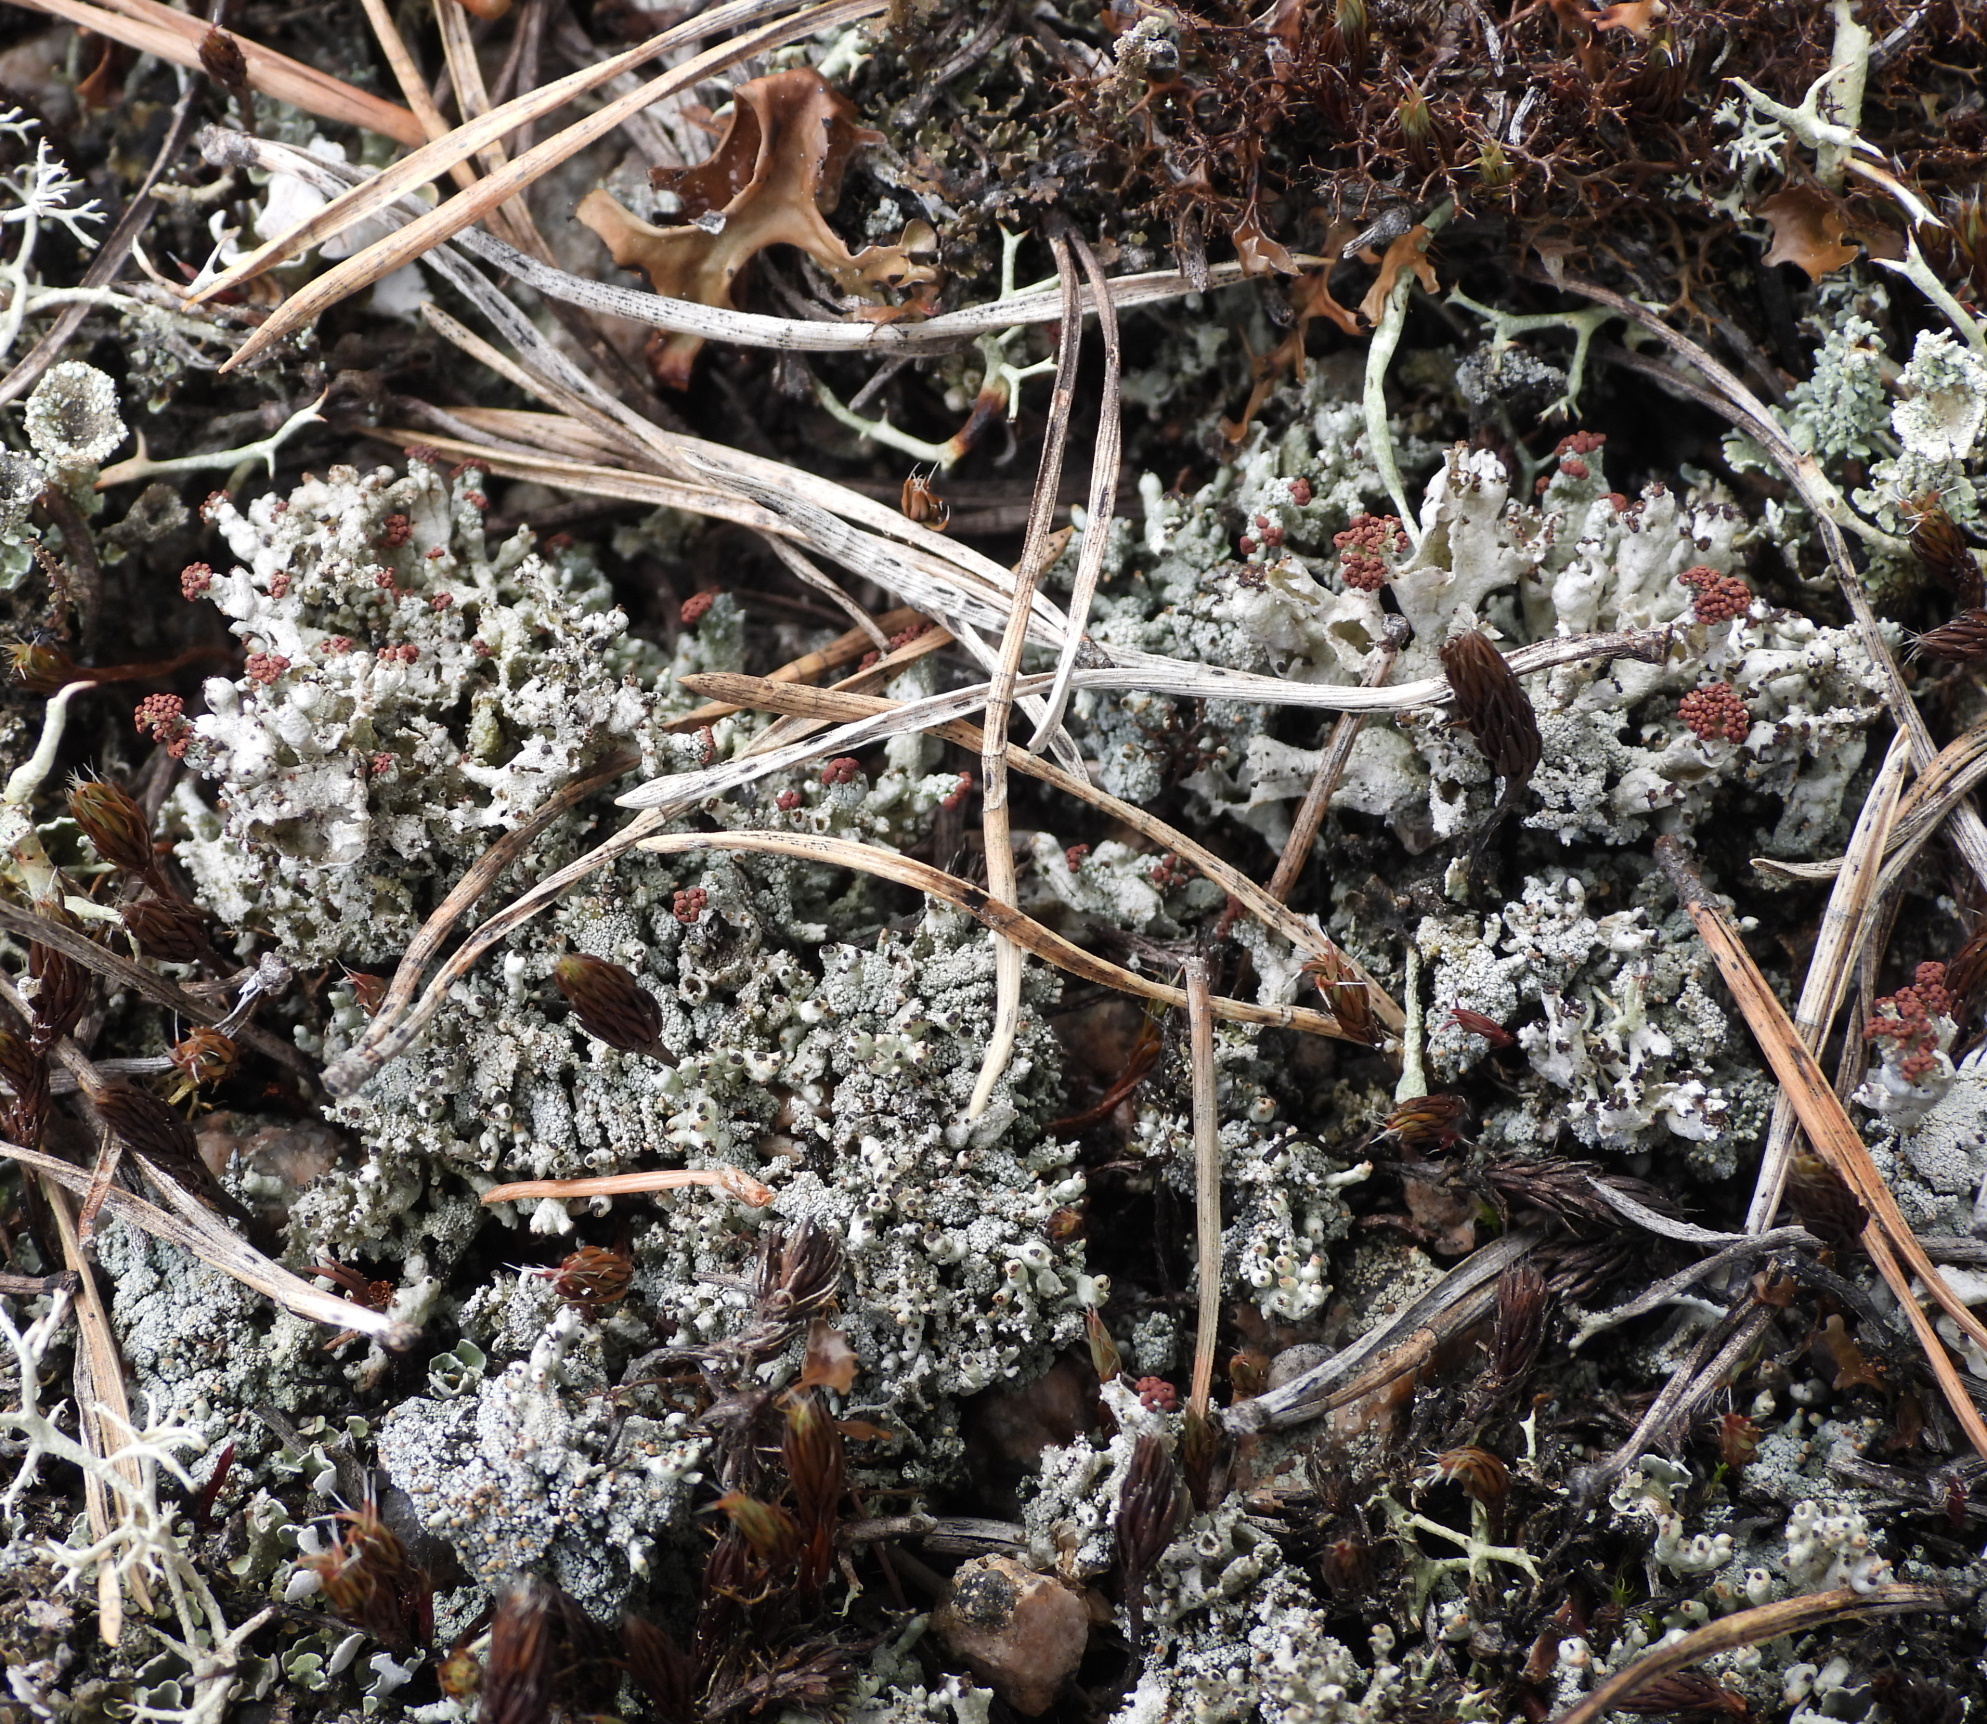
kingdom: Fungi
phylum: Ascomycota
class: Lecanoromycetes
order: Lecanorales
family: Cladoniaceae
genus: Pycnothelia
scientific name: Pycnothelia papillaria
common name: Nipple lichen
